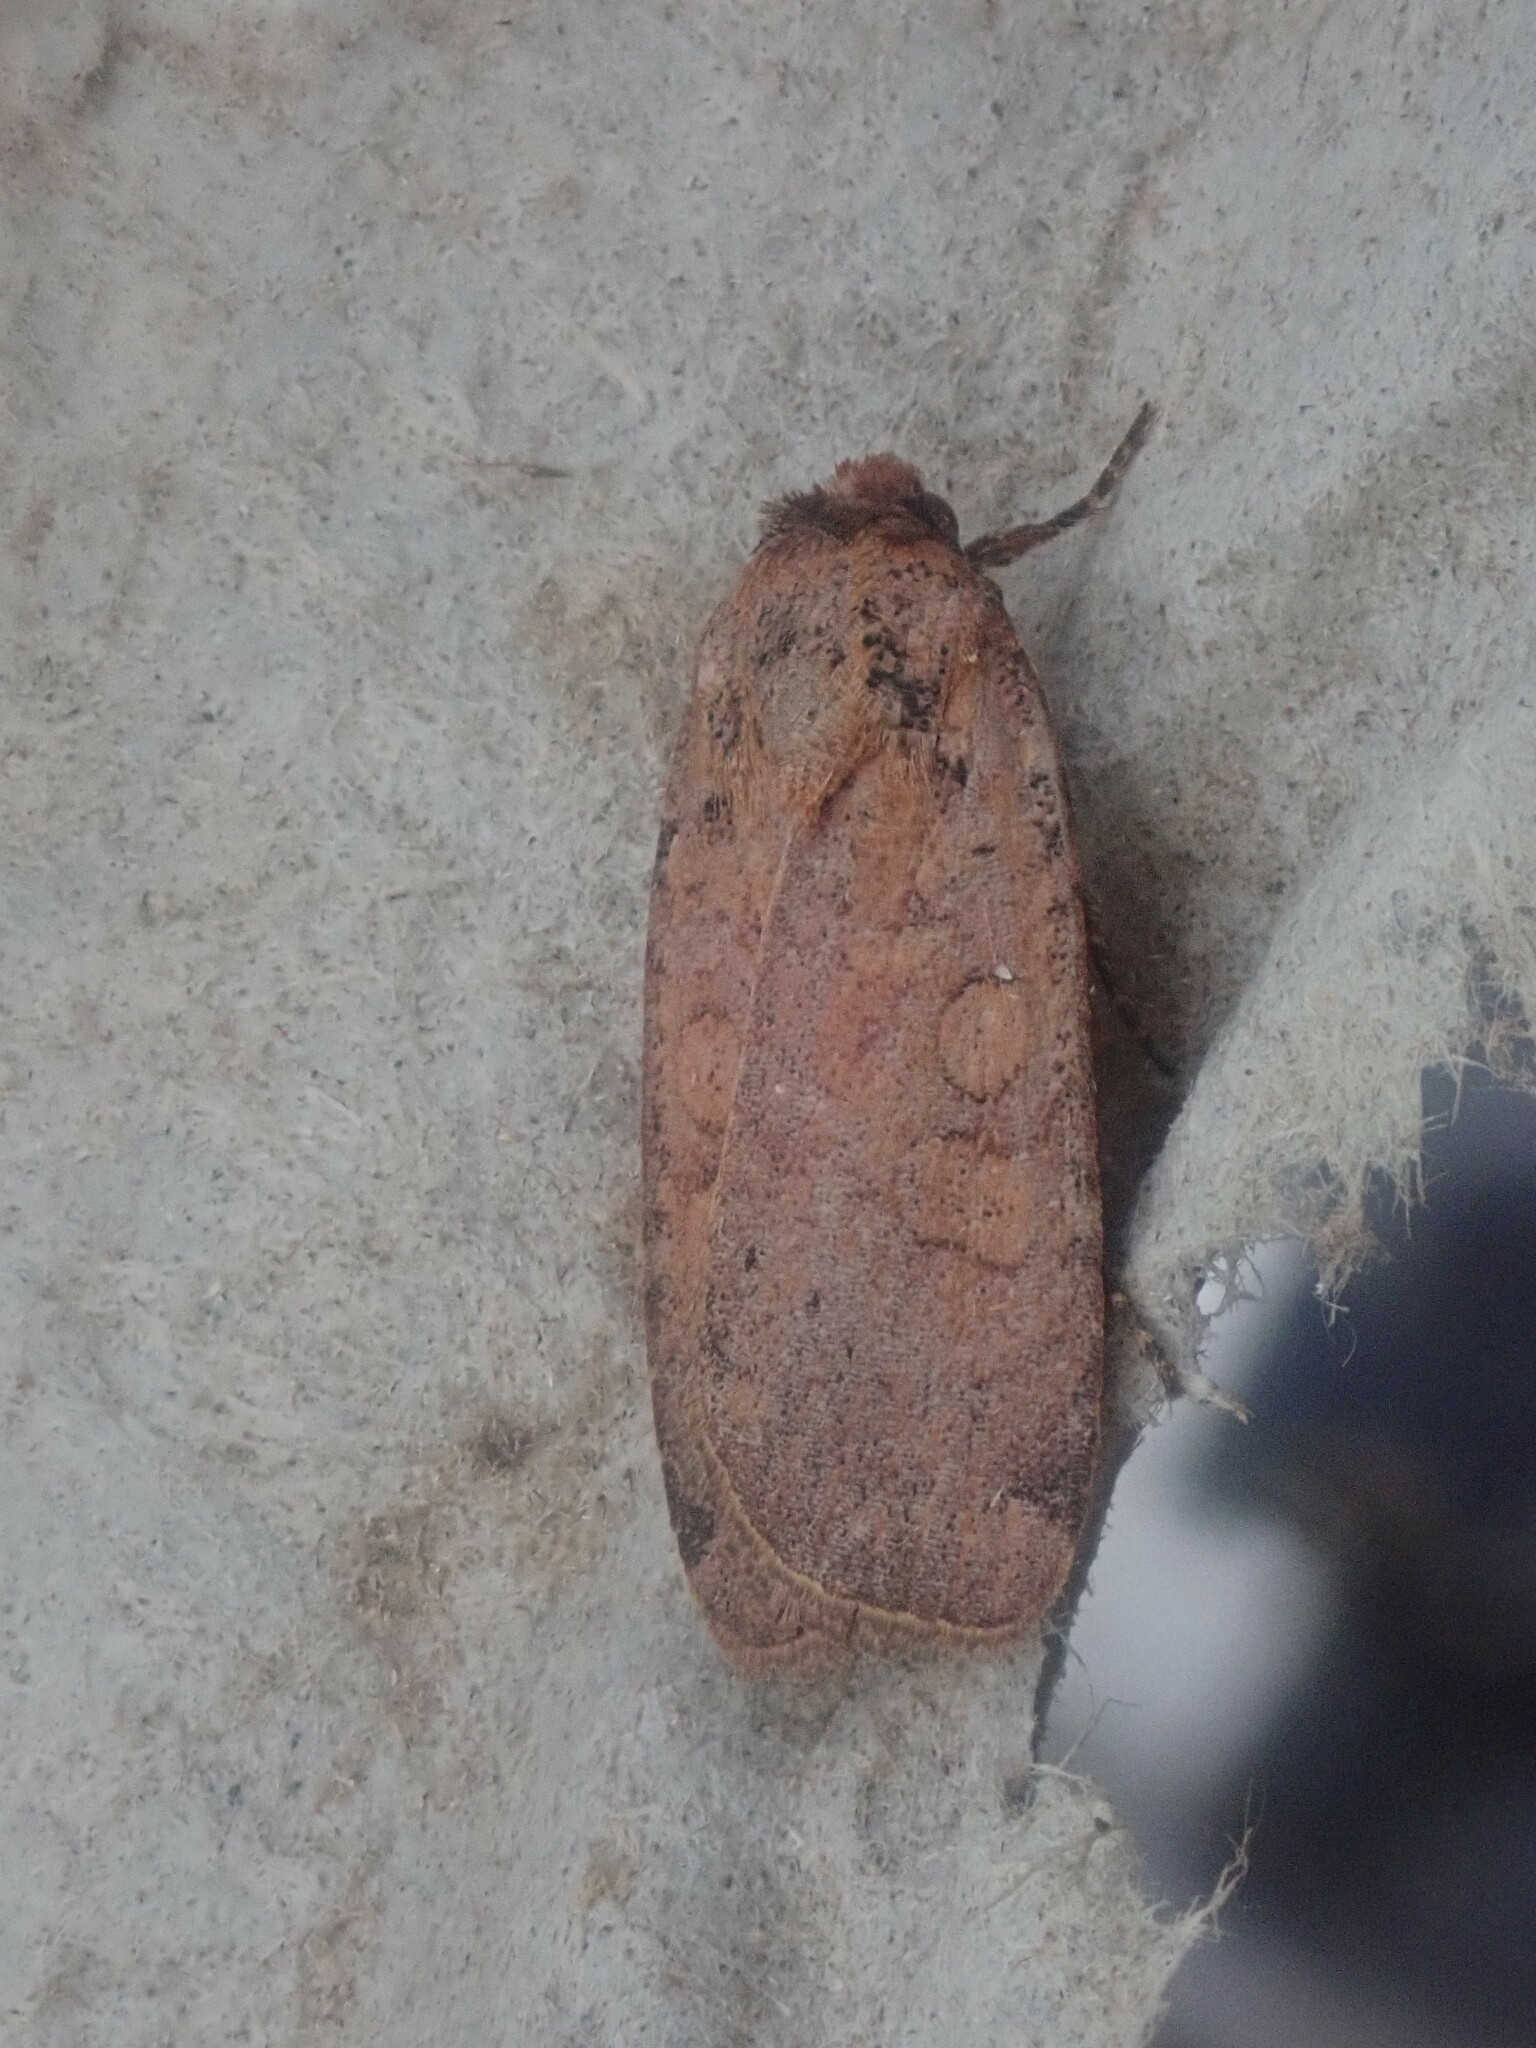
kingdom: Animalia
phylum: Arthropoda
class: Insecta
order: Lepidoptera
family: Noctuidae
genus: Protolampra
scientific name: Protolampra brunneicollis
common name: Brown-collared dart
